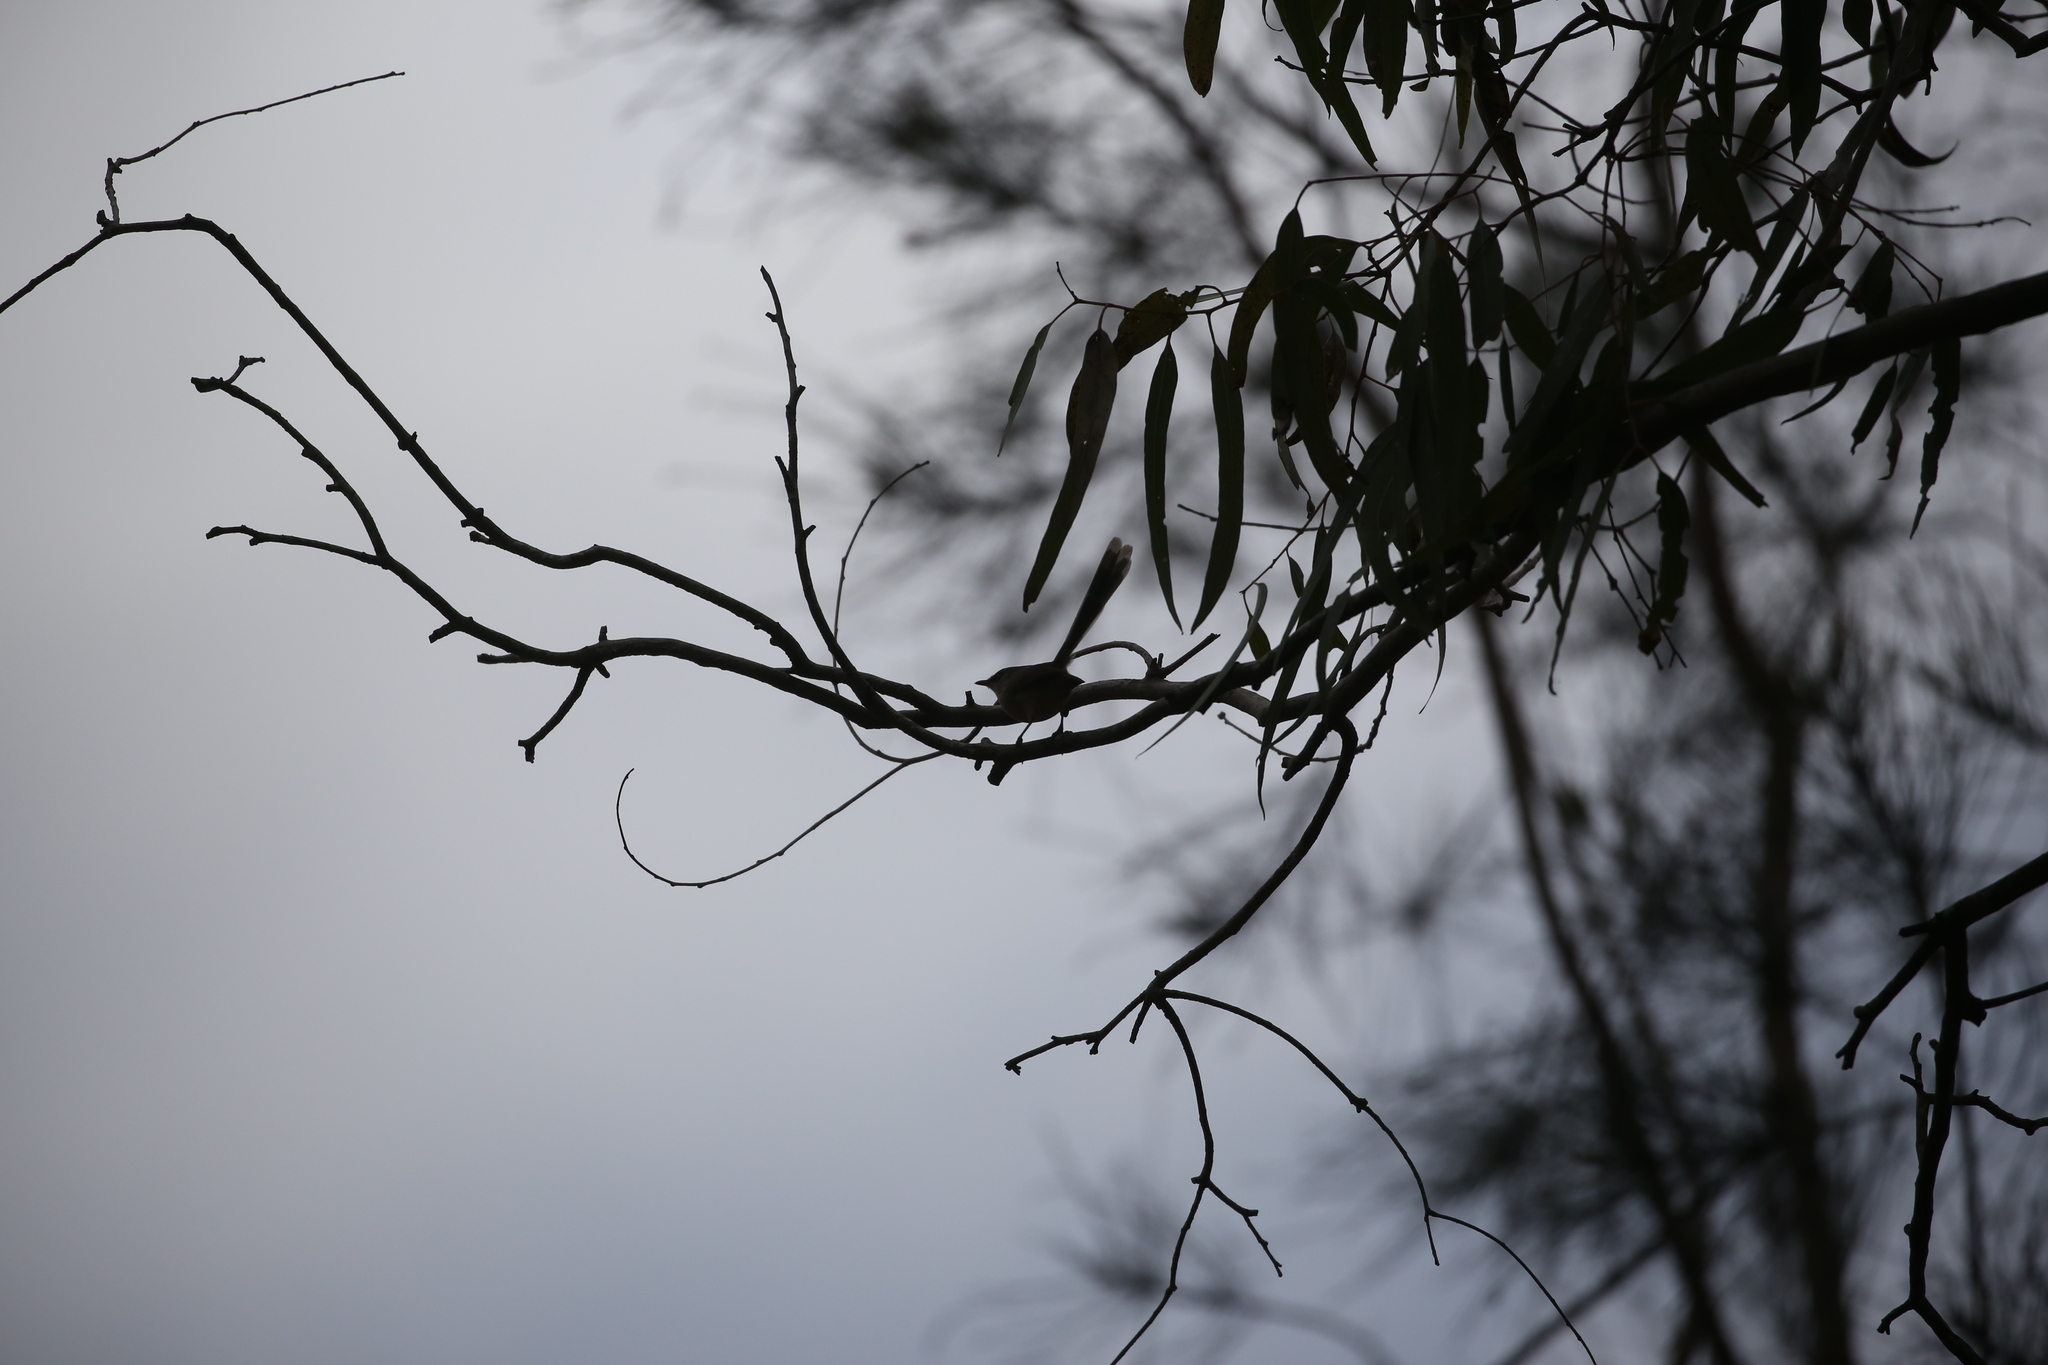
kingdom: Animalia
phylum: Chordata
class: Aves
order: Passeriformes
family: Maluridae
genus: Malurus
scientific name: Malurus lamberti
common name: Variegated fairywren
